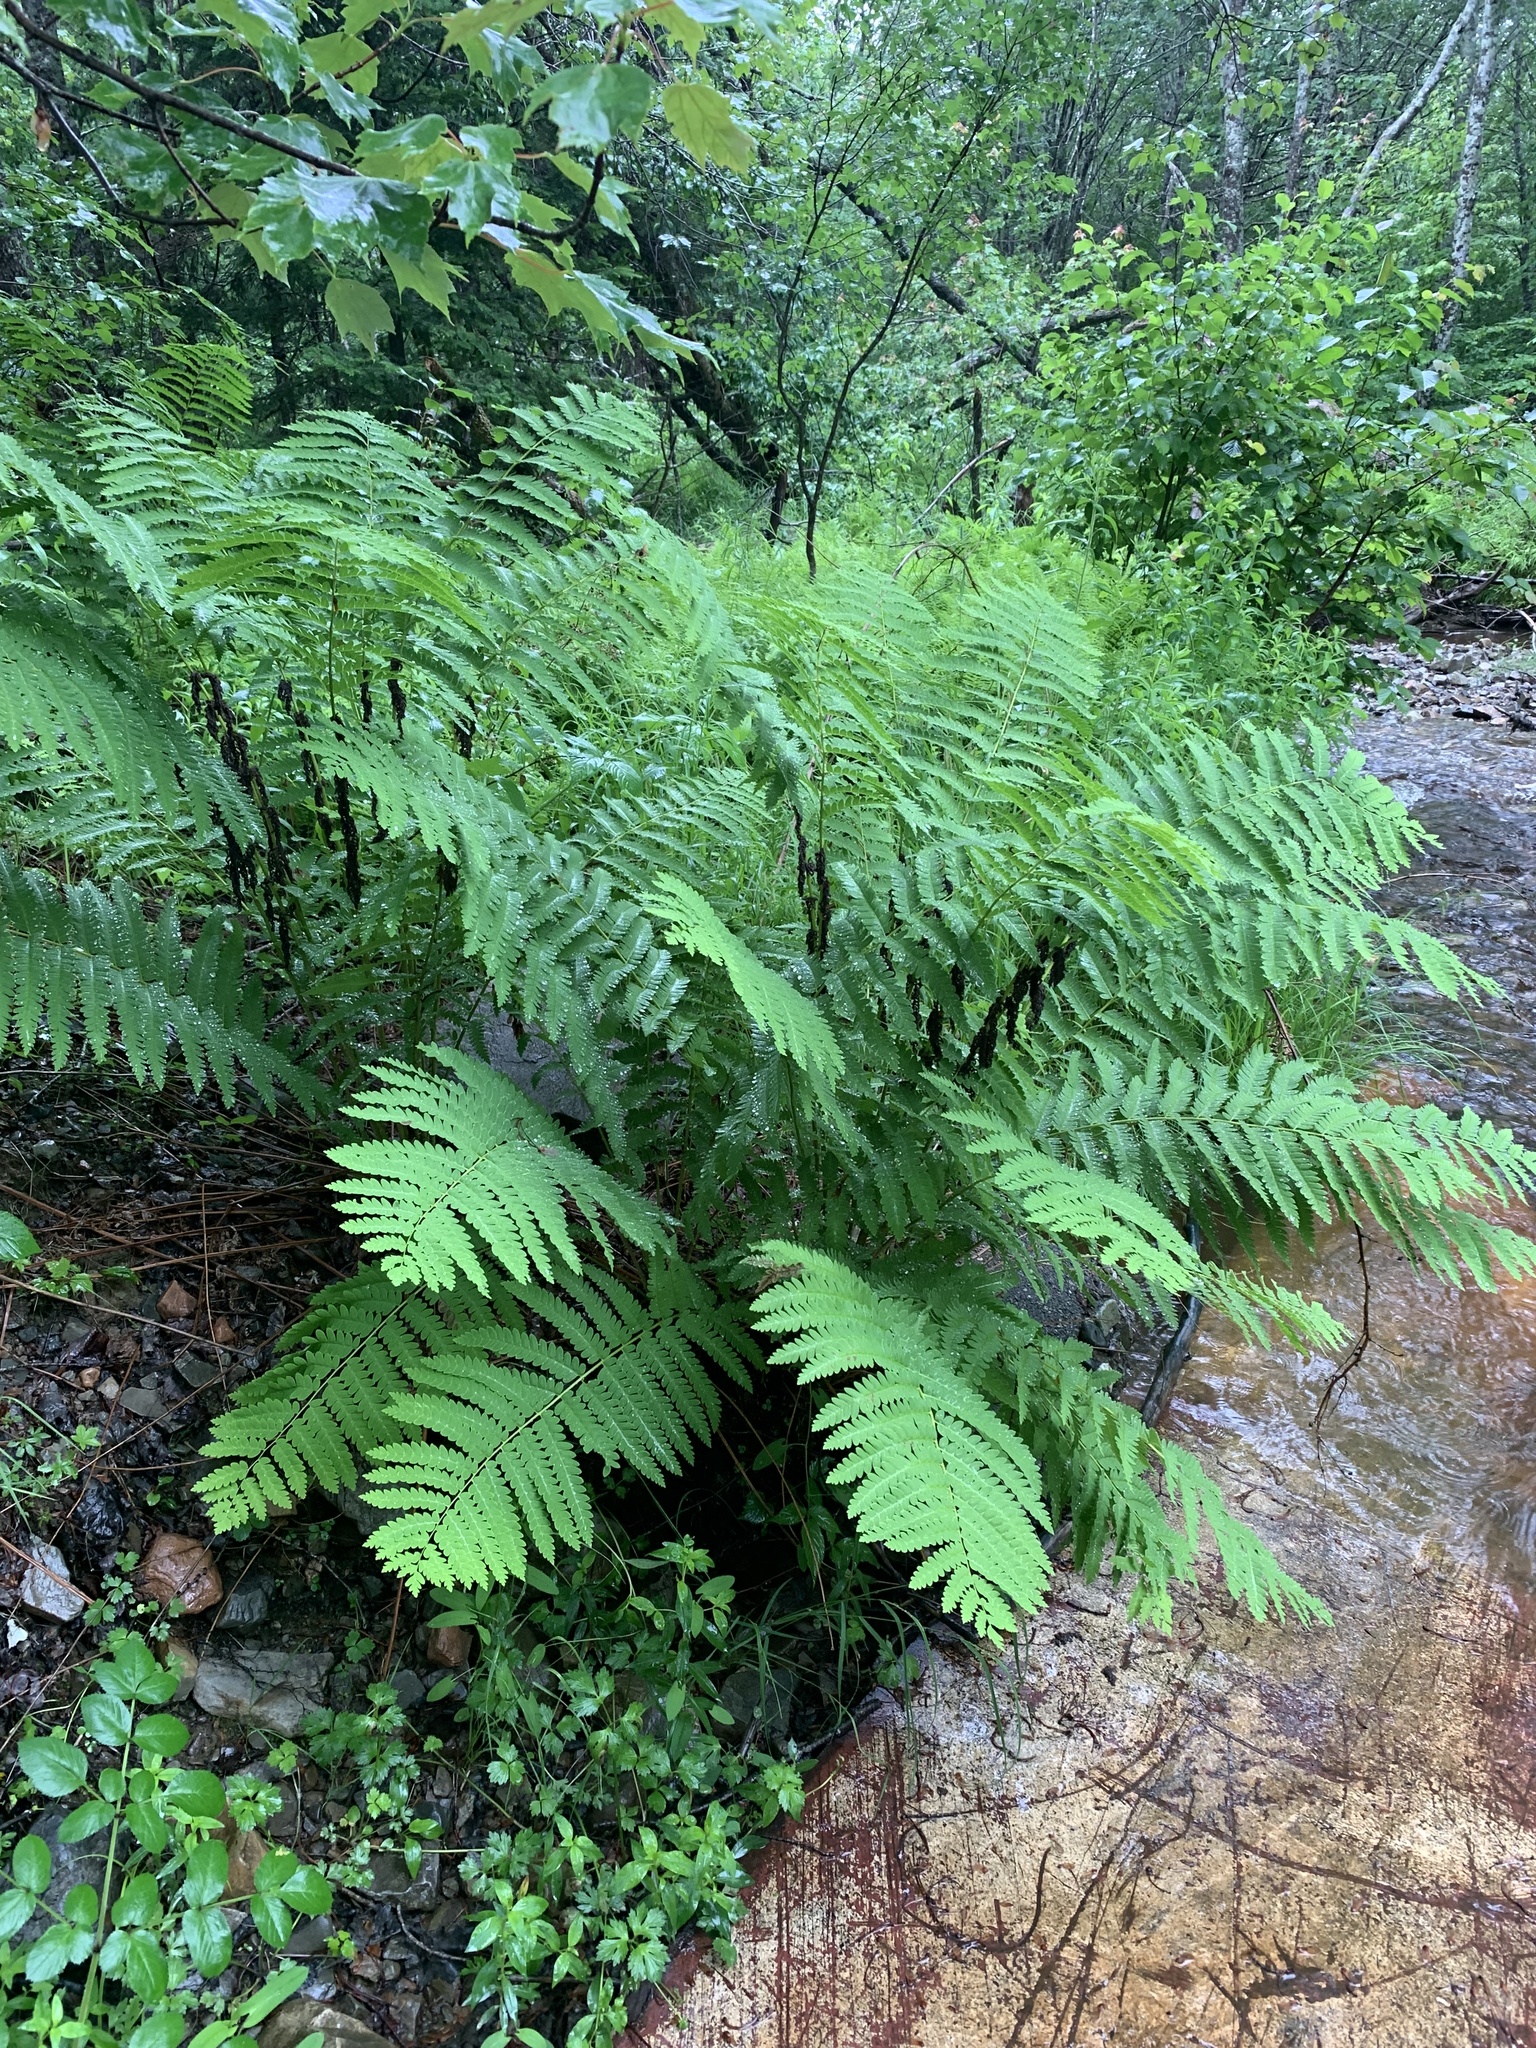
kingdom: Plantae
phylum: Tracheophyta
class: Polypodiopsida
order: Osmundales
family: Osmundaceae
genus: Claytosmunda
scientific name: Claytosmunda claytoniana
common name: Clayton's fern
